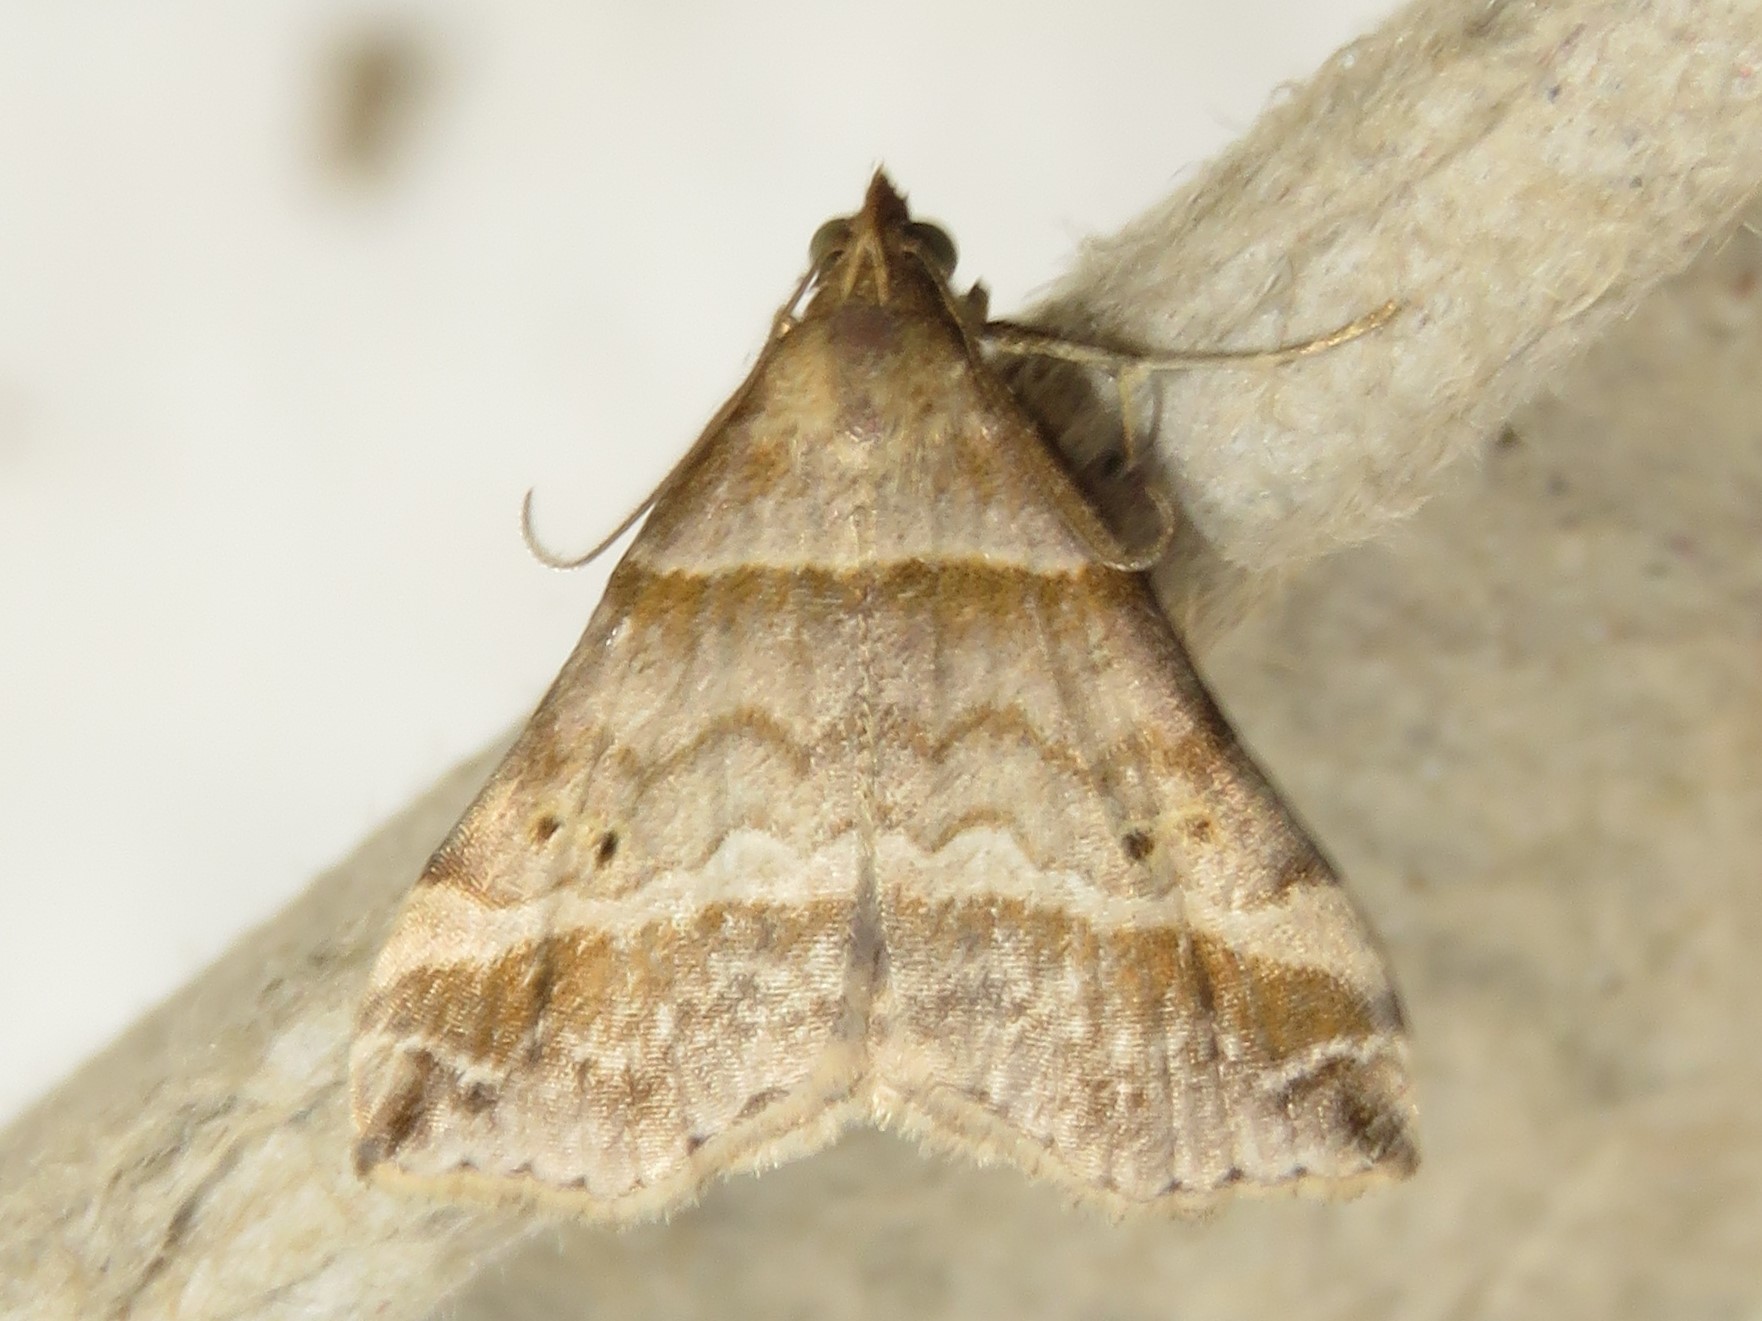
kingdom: Animalia
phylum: Arthropoda
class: Insecta
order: Lepidoptera
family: Erebidae
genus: Phaeolita
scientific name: Phaeolita pyramusalis
